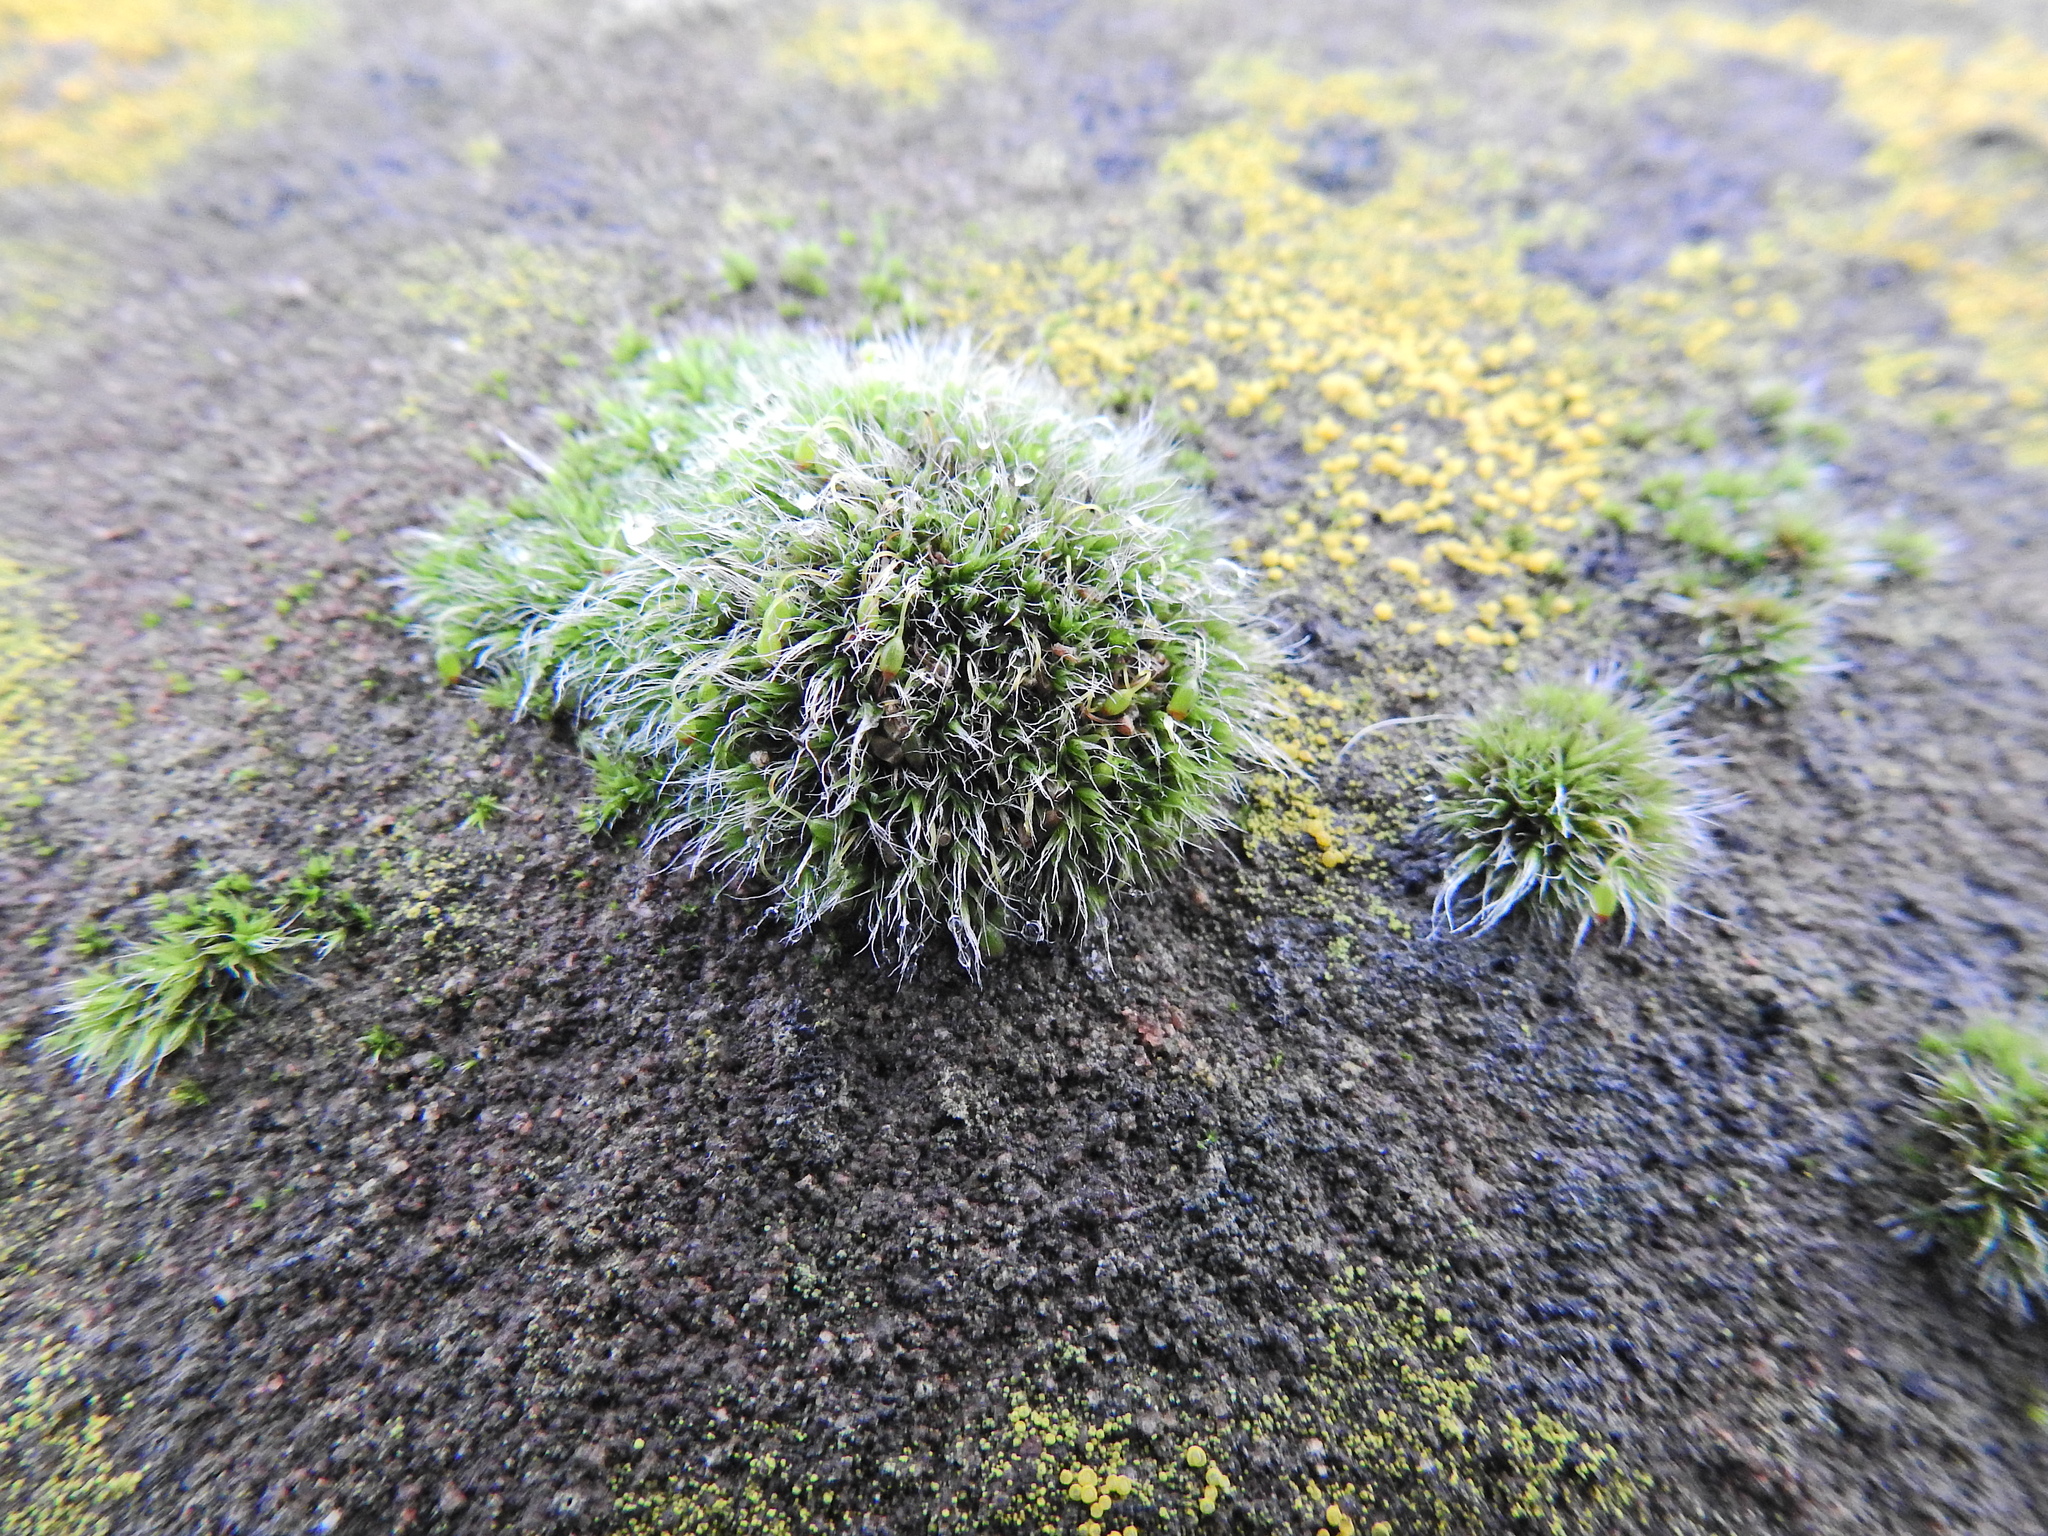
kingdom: Plantae
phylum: Bryophyta
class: Bryopsida
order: Grimmiales
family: Grimmiaceae
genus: Grimmia
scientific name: Grimmia pulvinata
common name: Grey-cushioned grimmia
